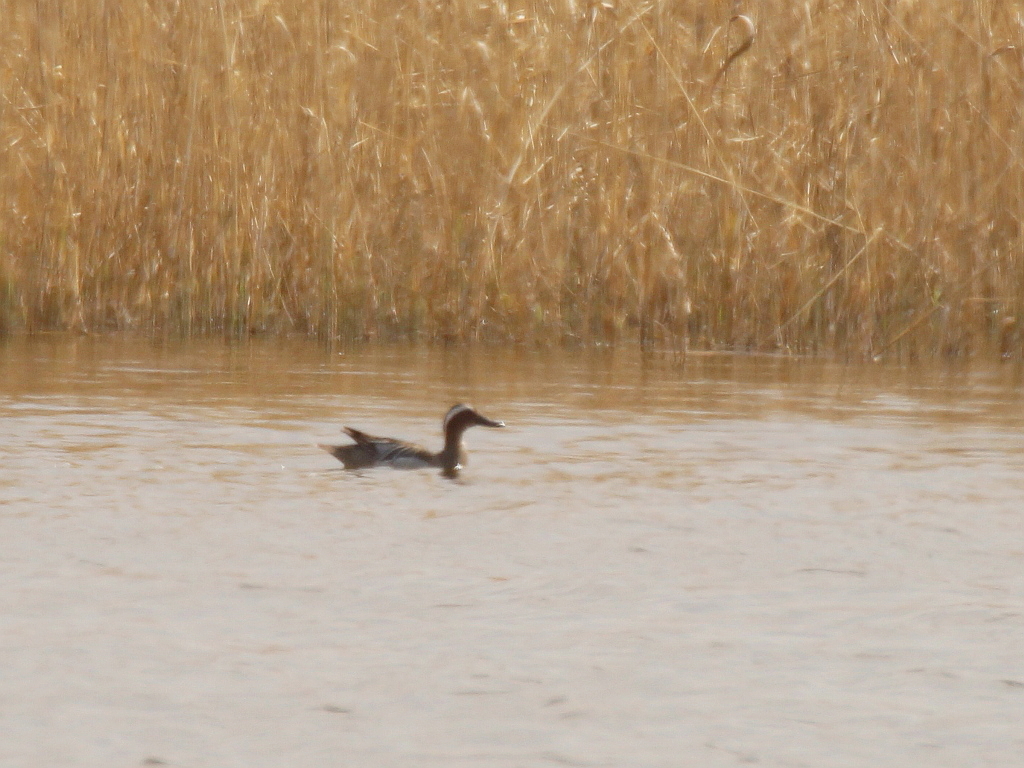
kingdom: Animalia
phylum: Chordata
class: Aves
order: Anseriformes
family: Anatidae
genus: Spatula
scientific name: Spatula querquedula
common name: Garganey
